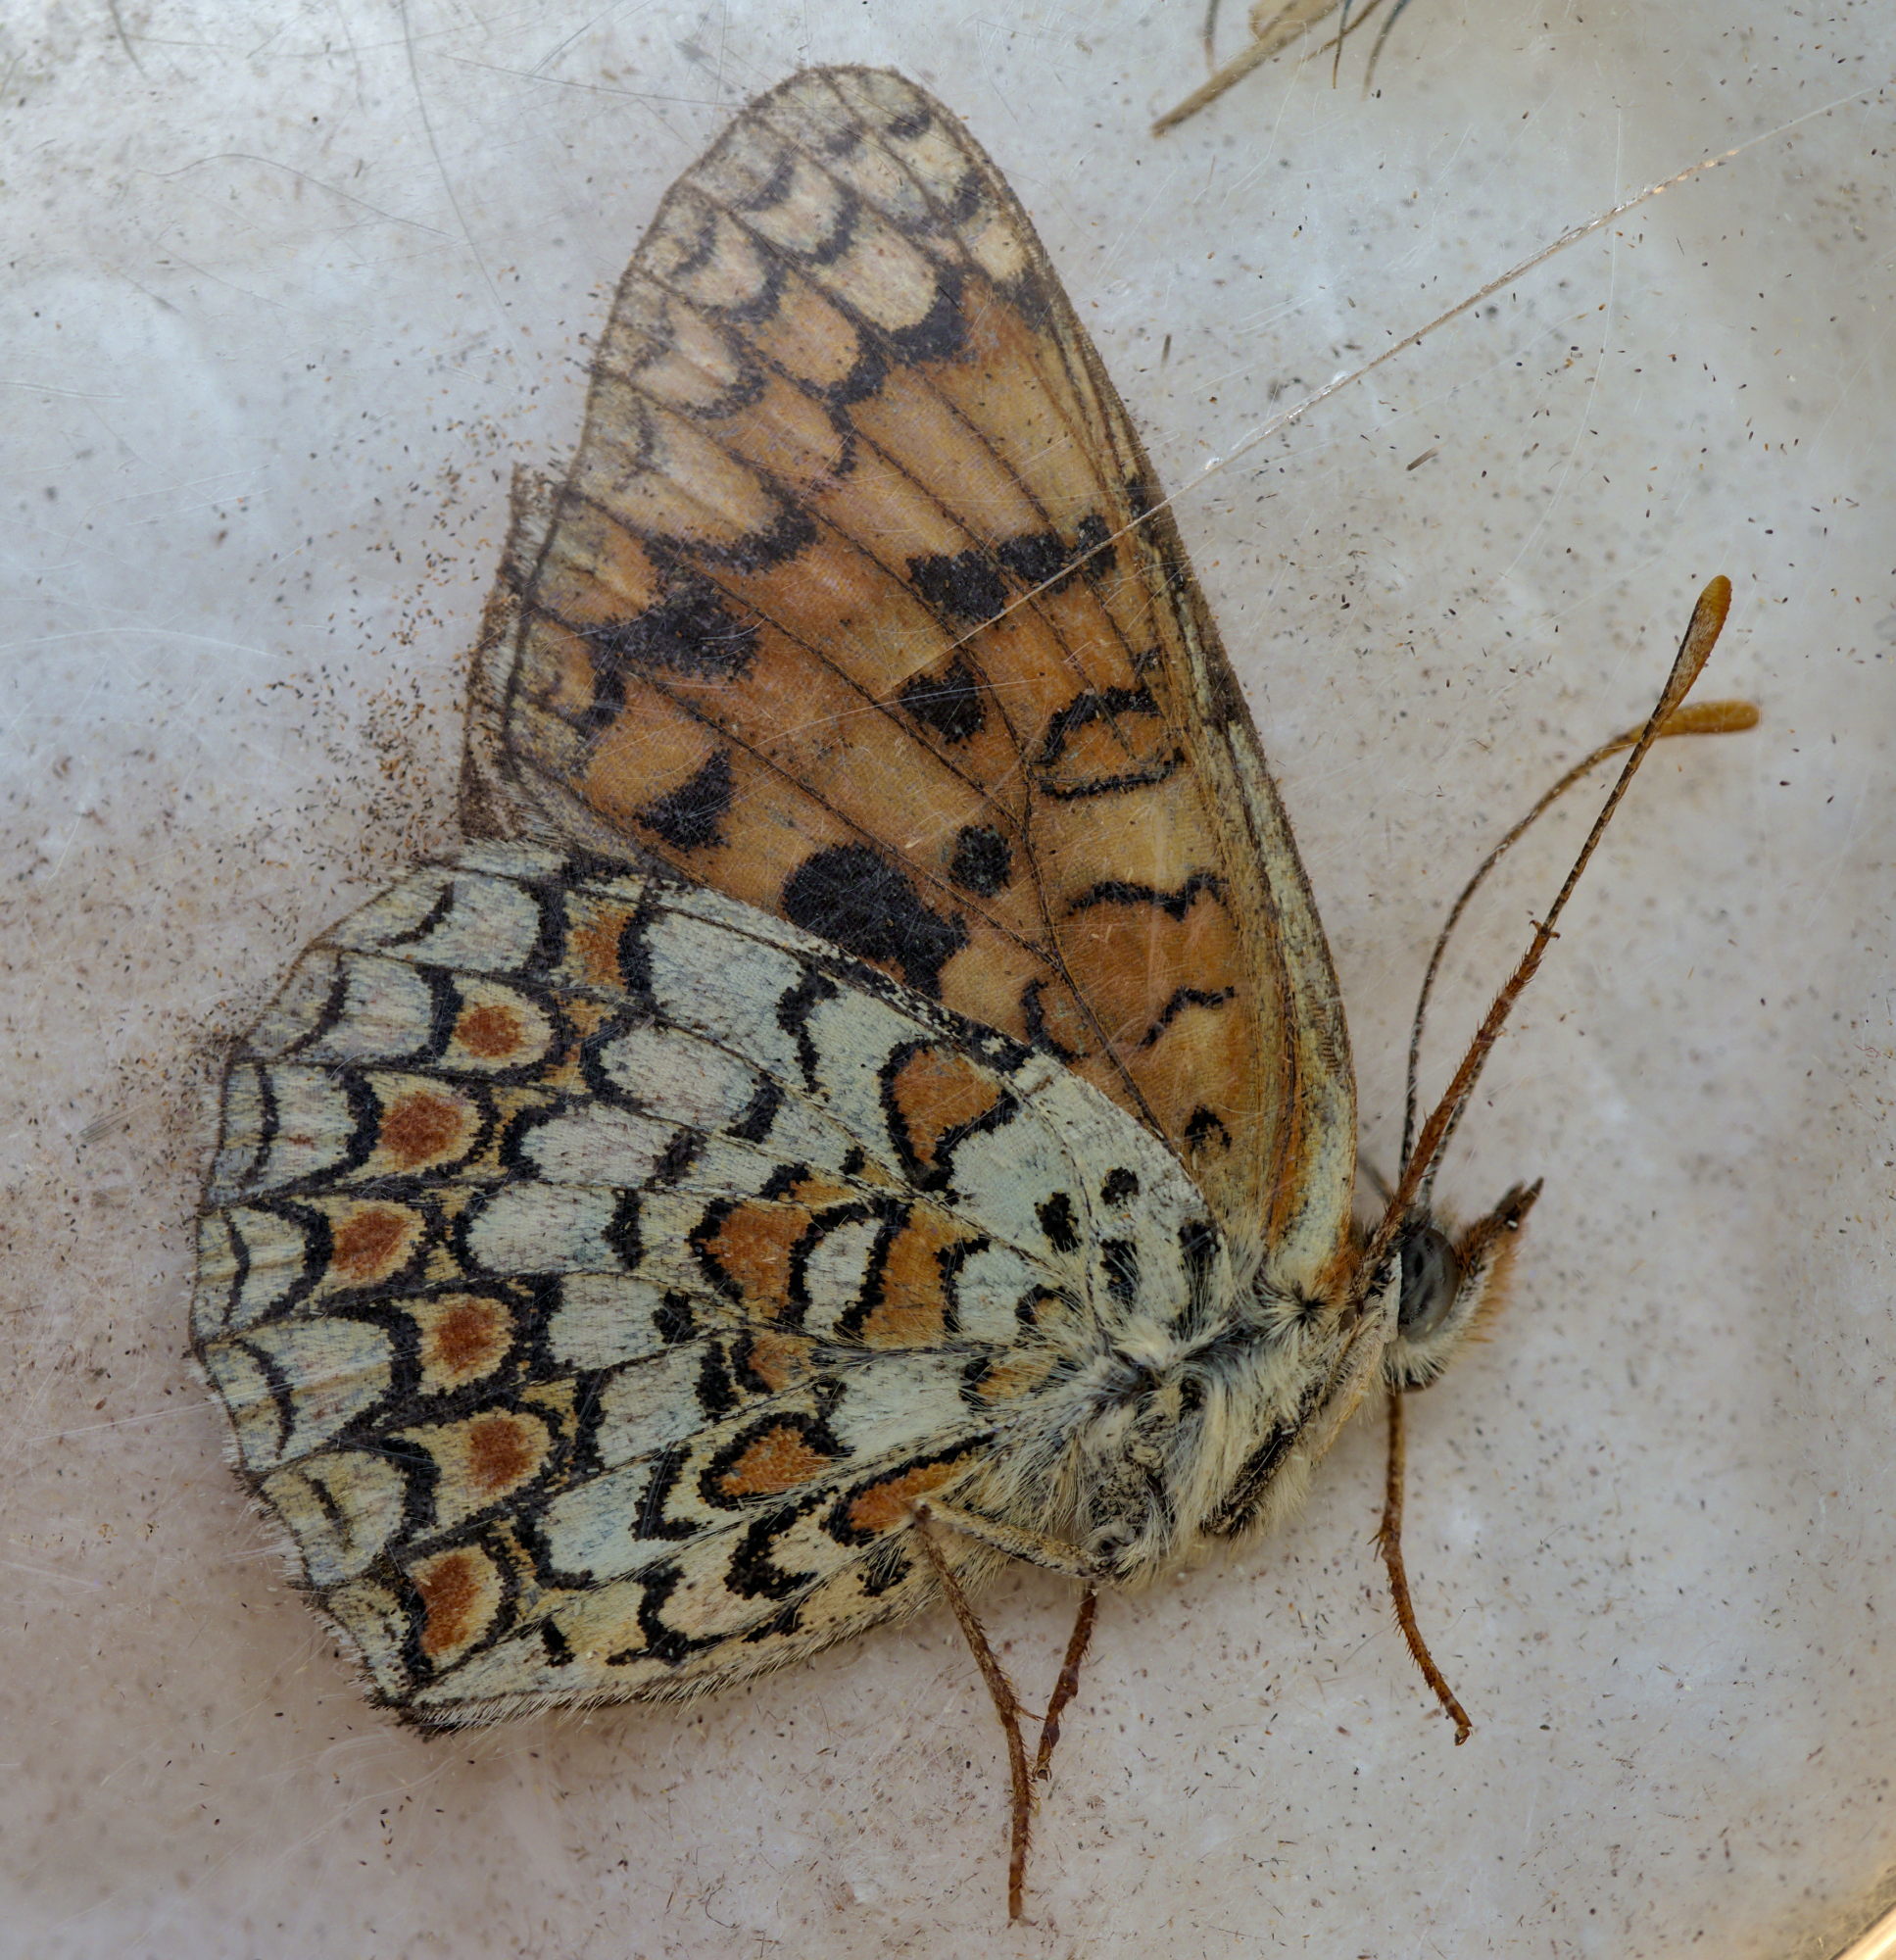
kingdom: Animalia
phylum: Arthropoda
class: Insecta
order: Lepidoptera
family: Nymphalidae
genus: Melitaea
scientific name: Melitaea phoebe
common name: Knapweed fritillary
